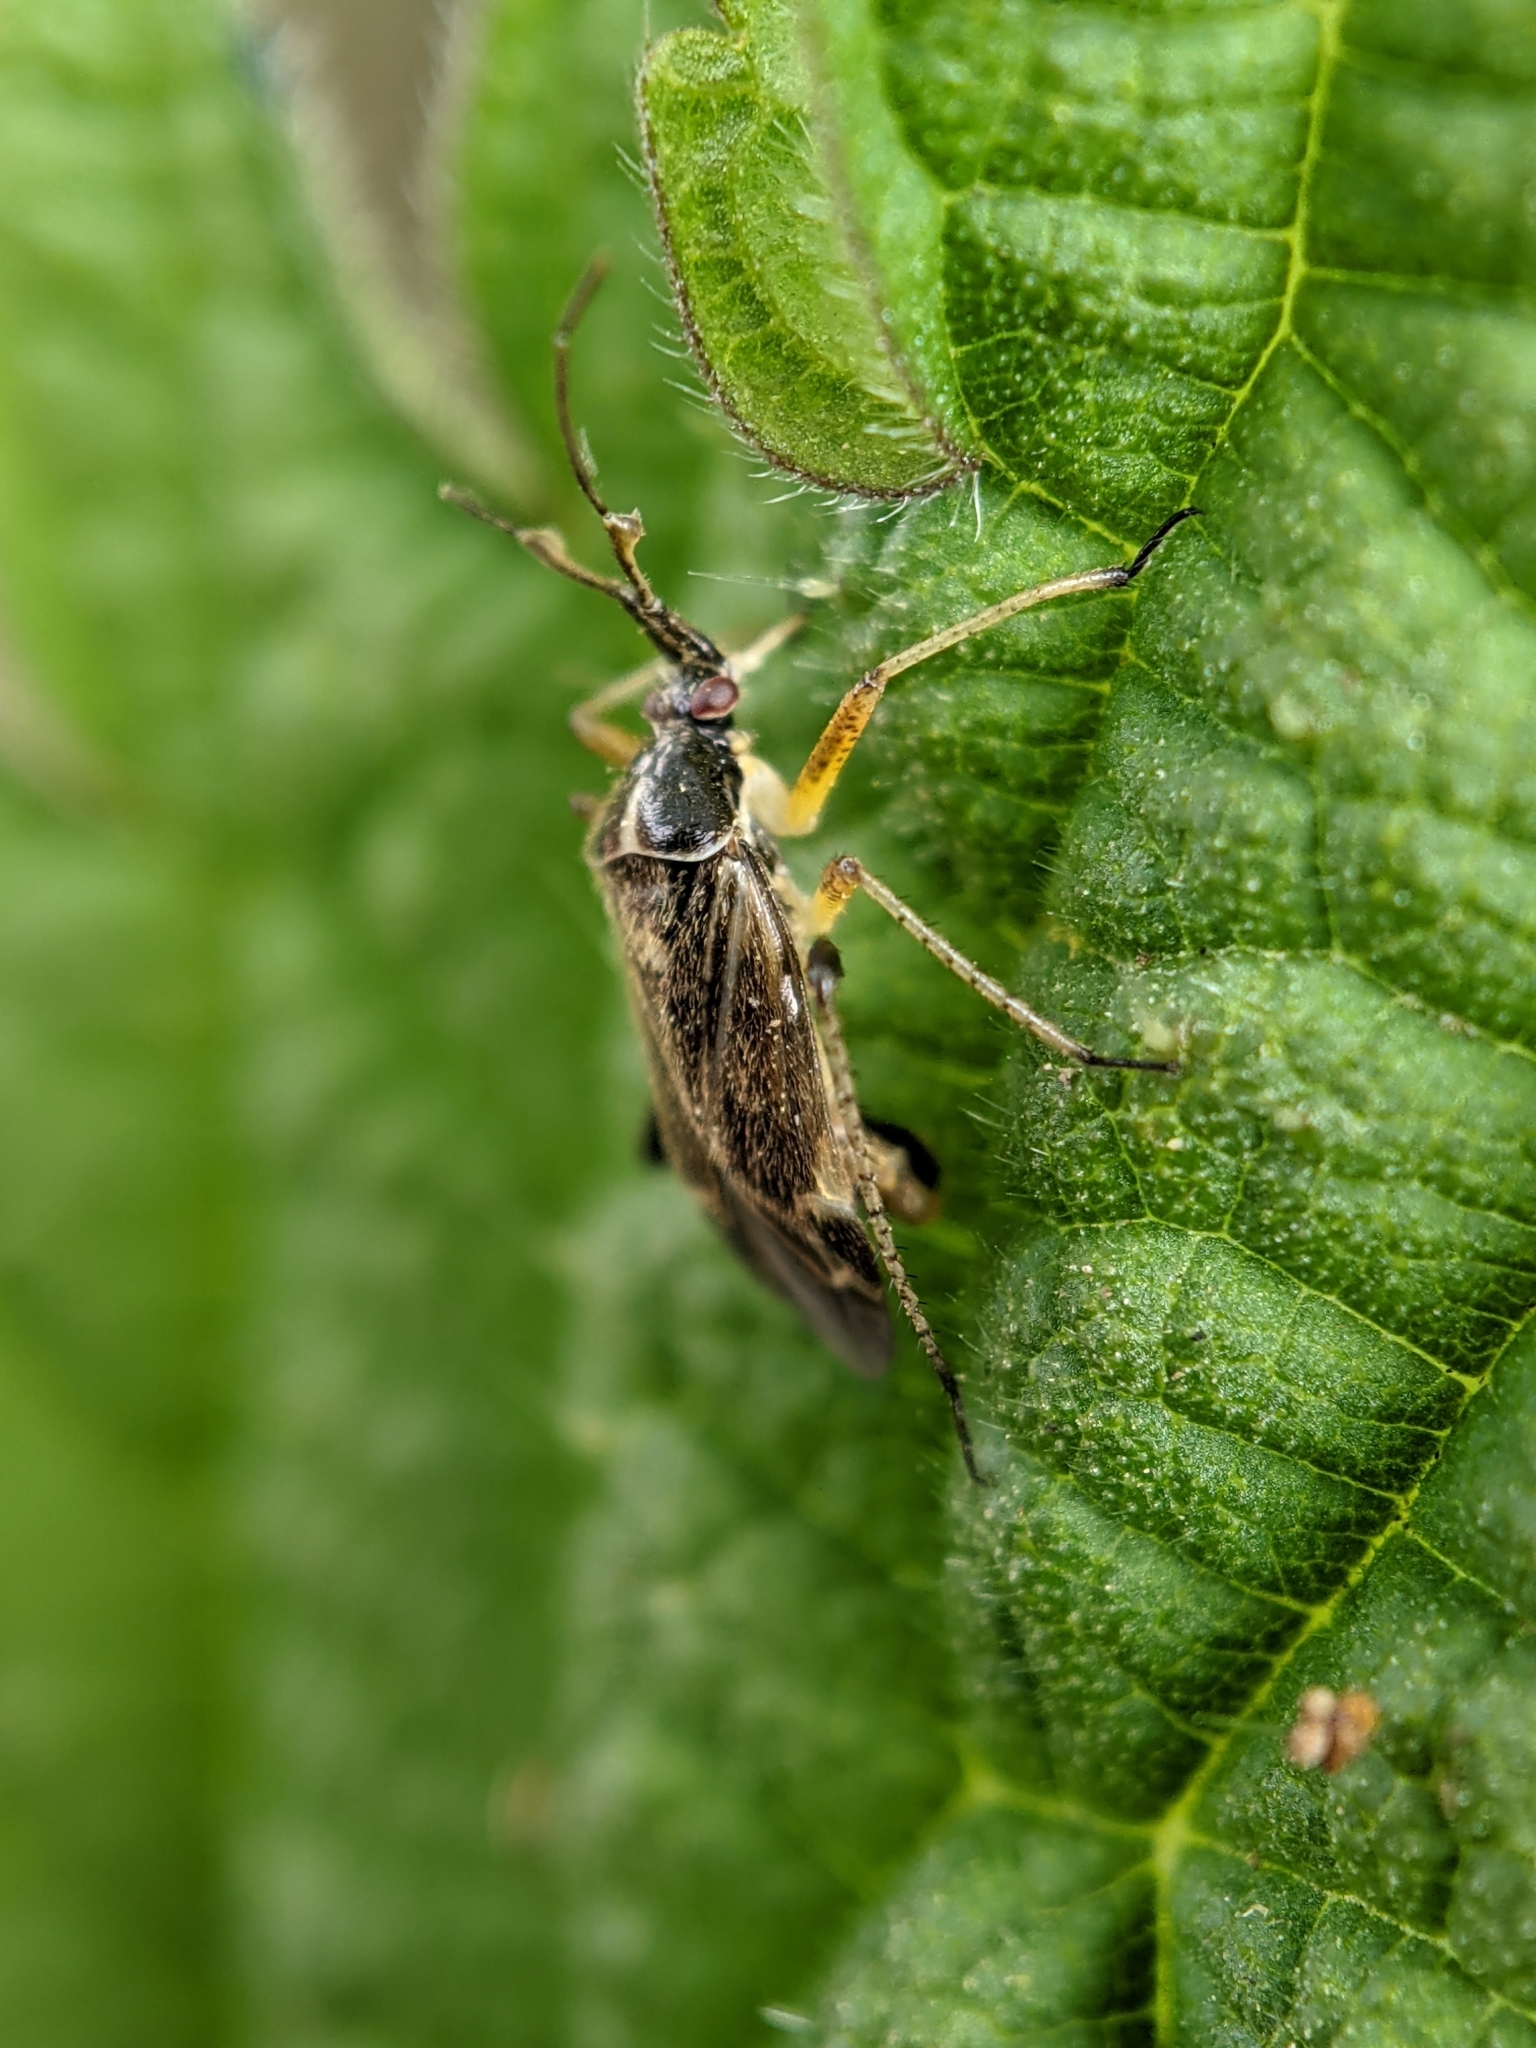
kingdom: Animalia
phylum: Arthropoda
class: Insecta
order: Hemiptera
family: Miridae
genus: Harpocera
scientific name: Harpocera thoracica
